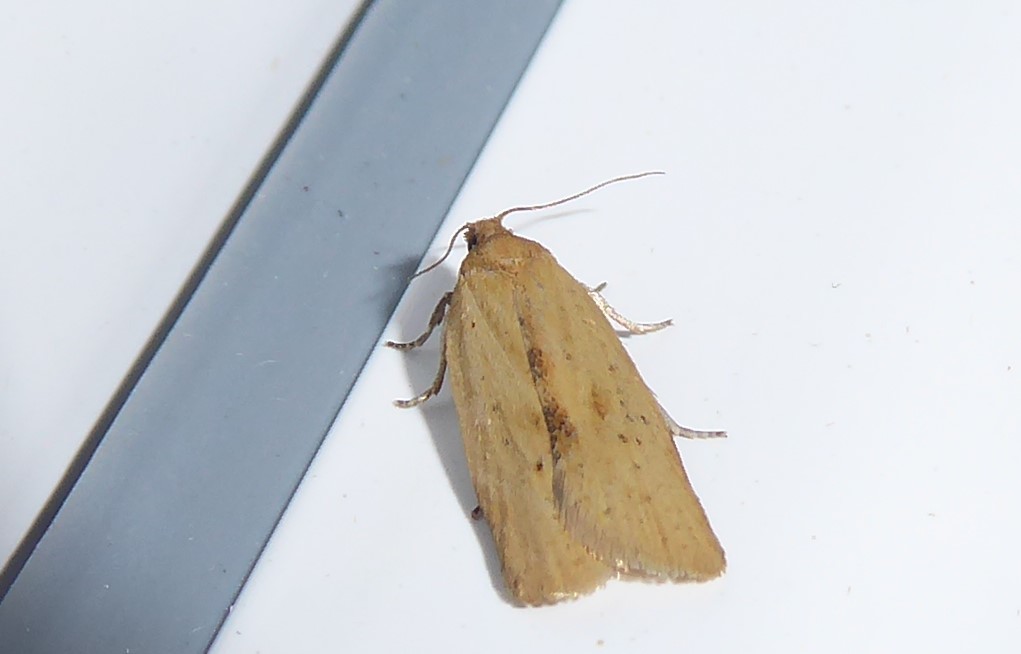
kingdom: Animalia
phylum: Arthropoda
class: Insecta
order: Lepidoptera
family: Tortricidae
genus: Clepsis
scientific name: Clepsis
